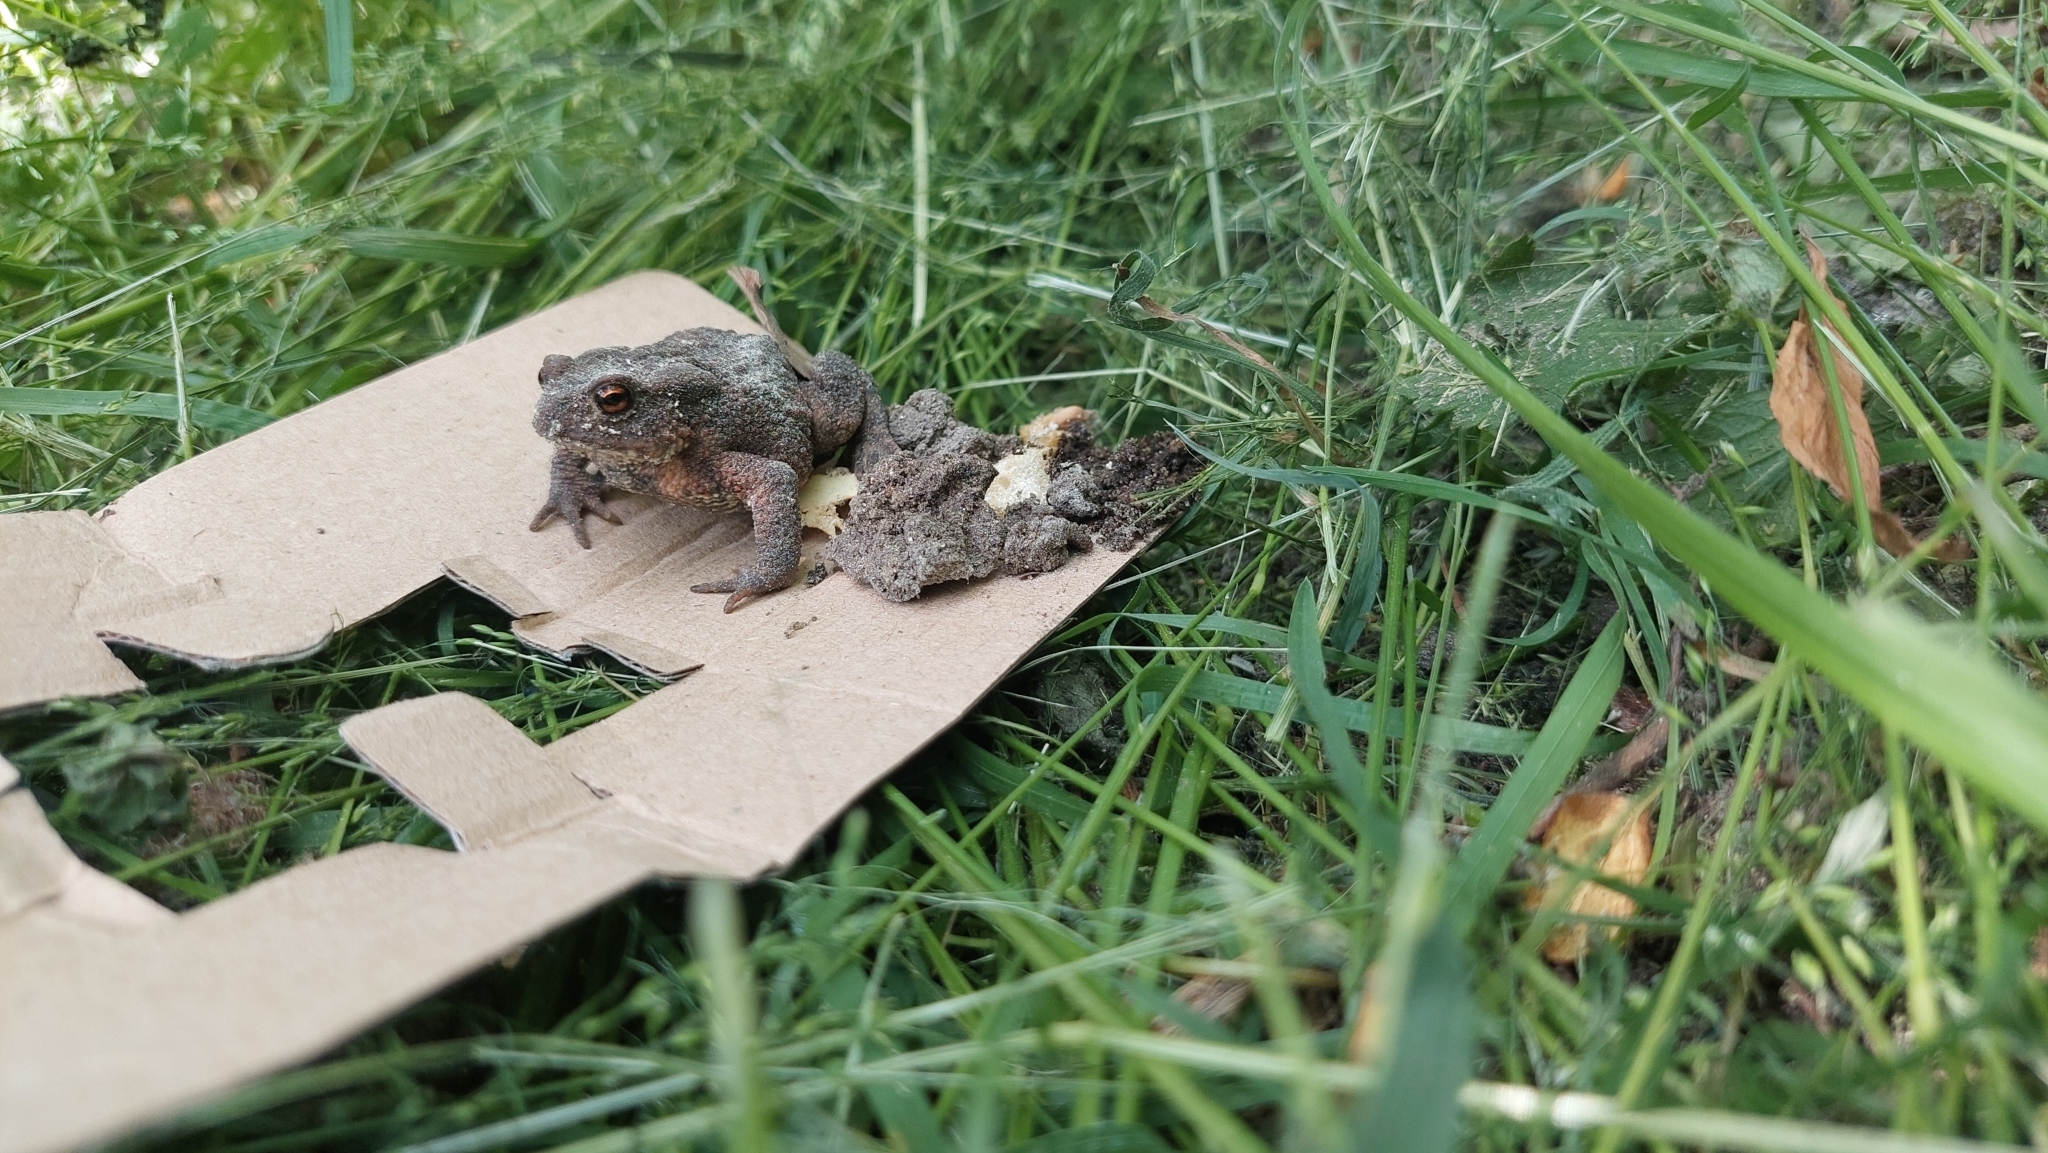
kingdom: Animalia
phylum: Chordata
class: Amphibia
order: Anura
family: Bufonidae
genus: Bufo
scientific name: Bufo bufo
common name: Common toad
